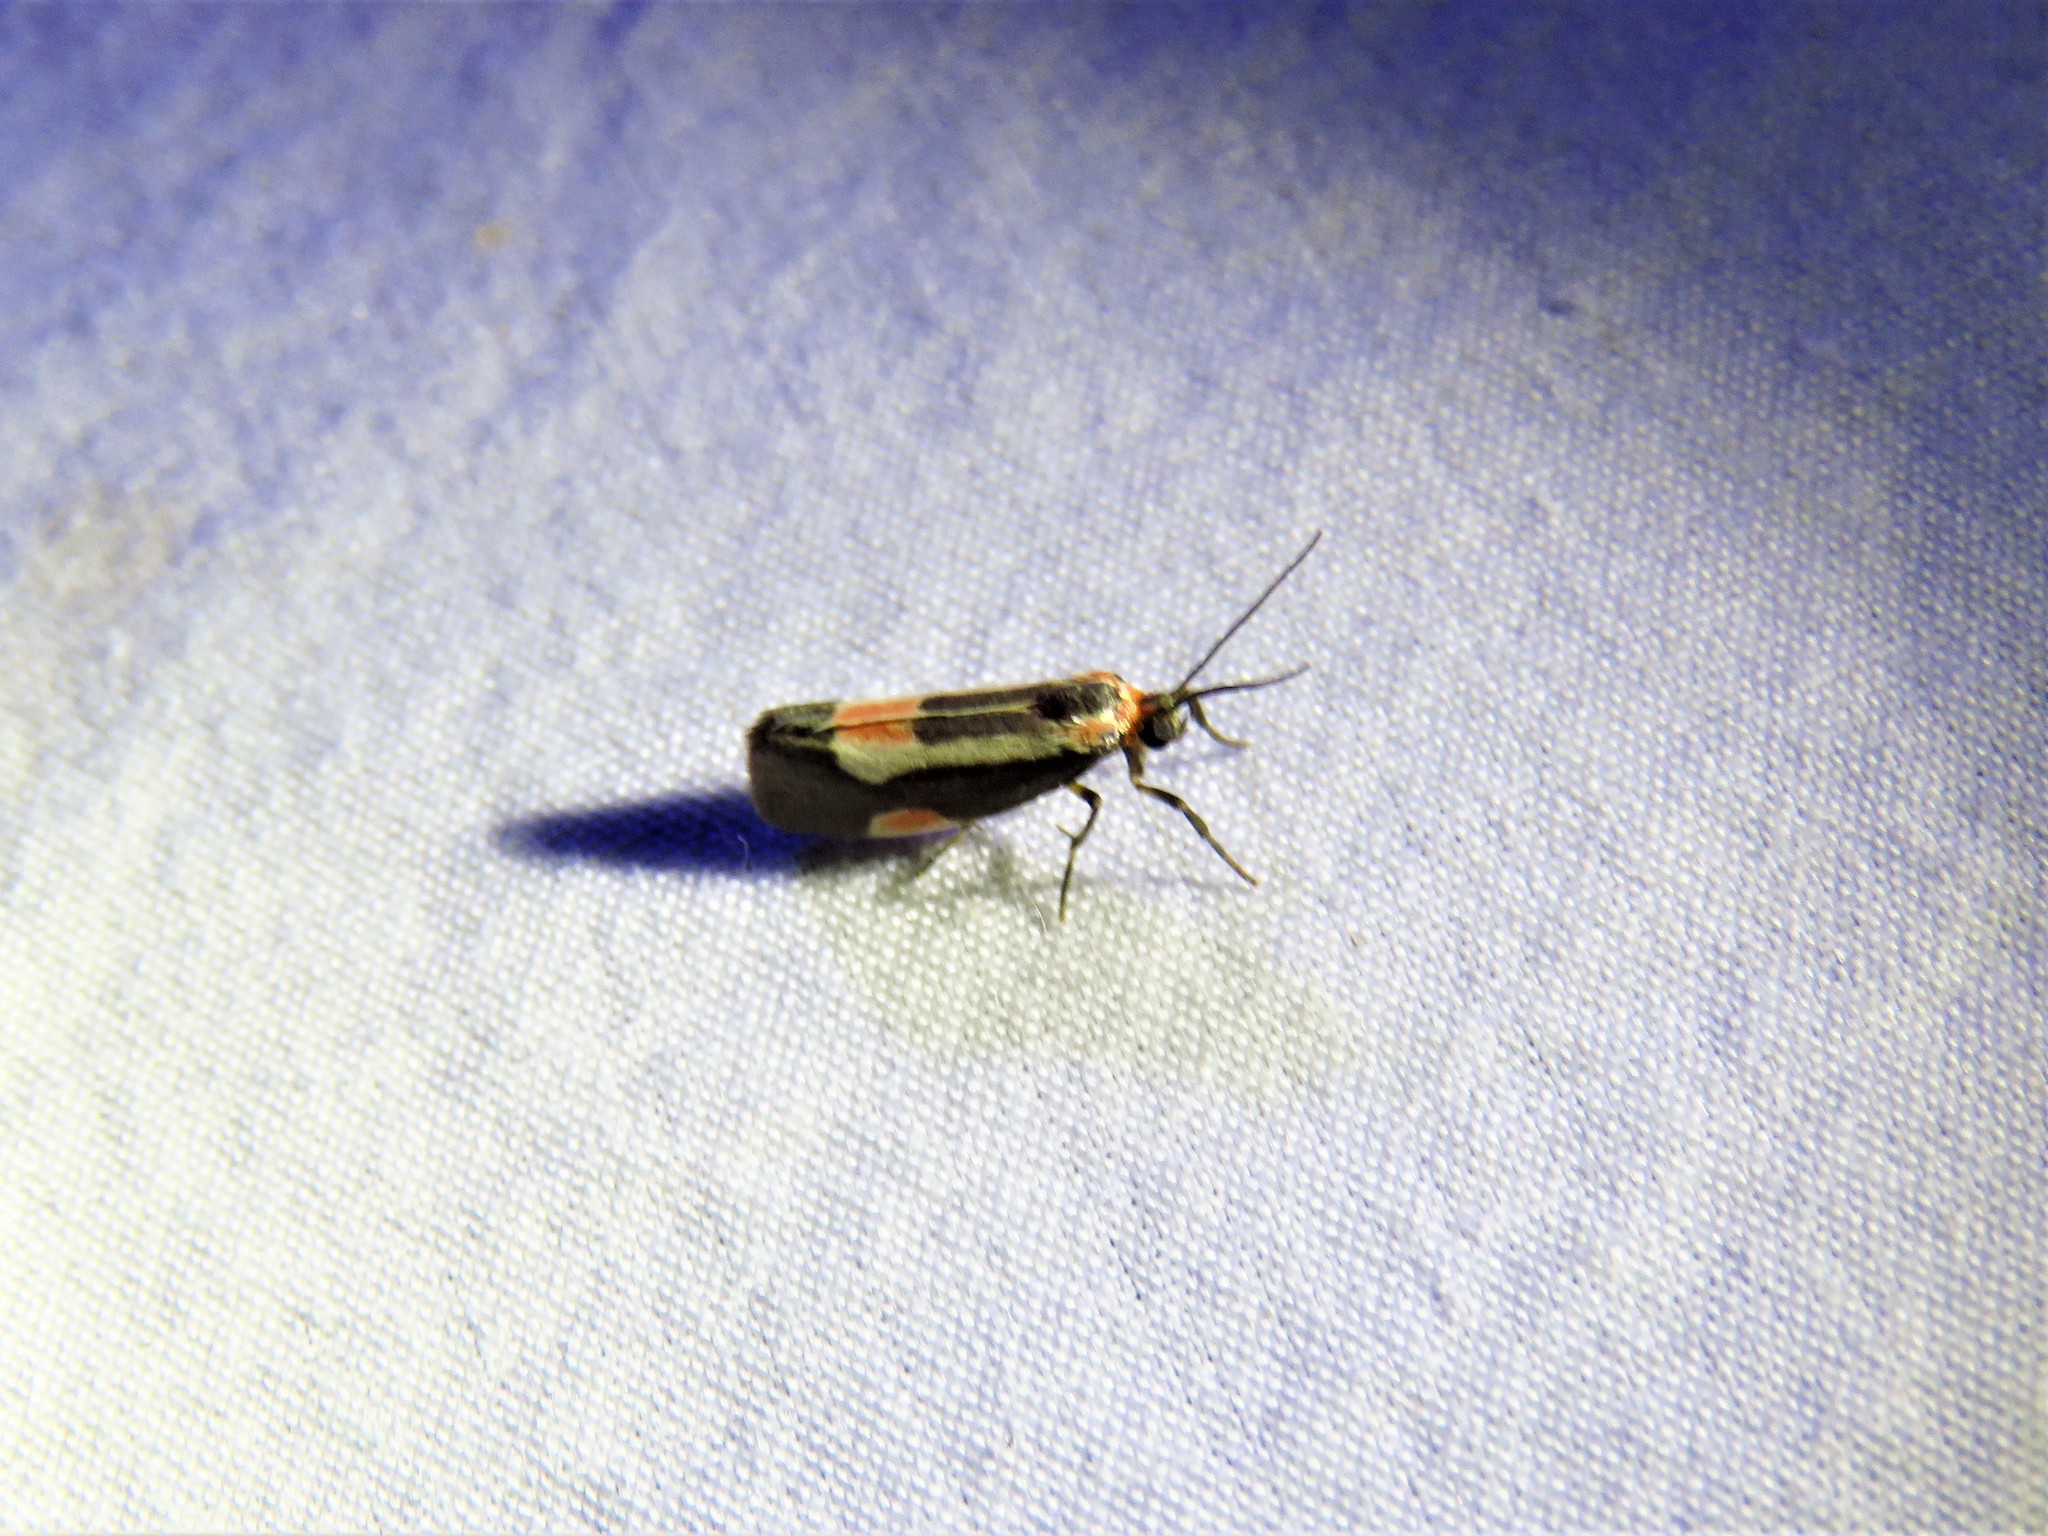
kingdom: Animalia
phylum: Arthropoda
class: Insecta
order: Lepidoptera
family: Erebidae
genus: Cisthene
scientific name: Cisthene packardii
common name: Packard's lichen moth
